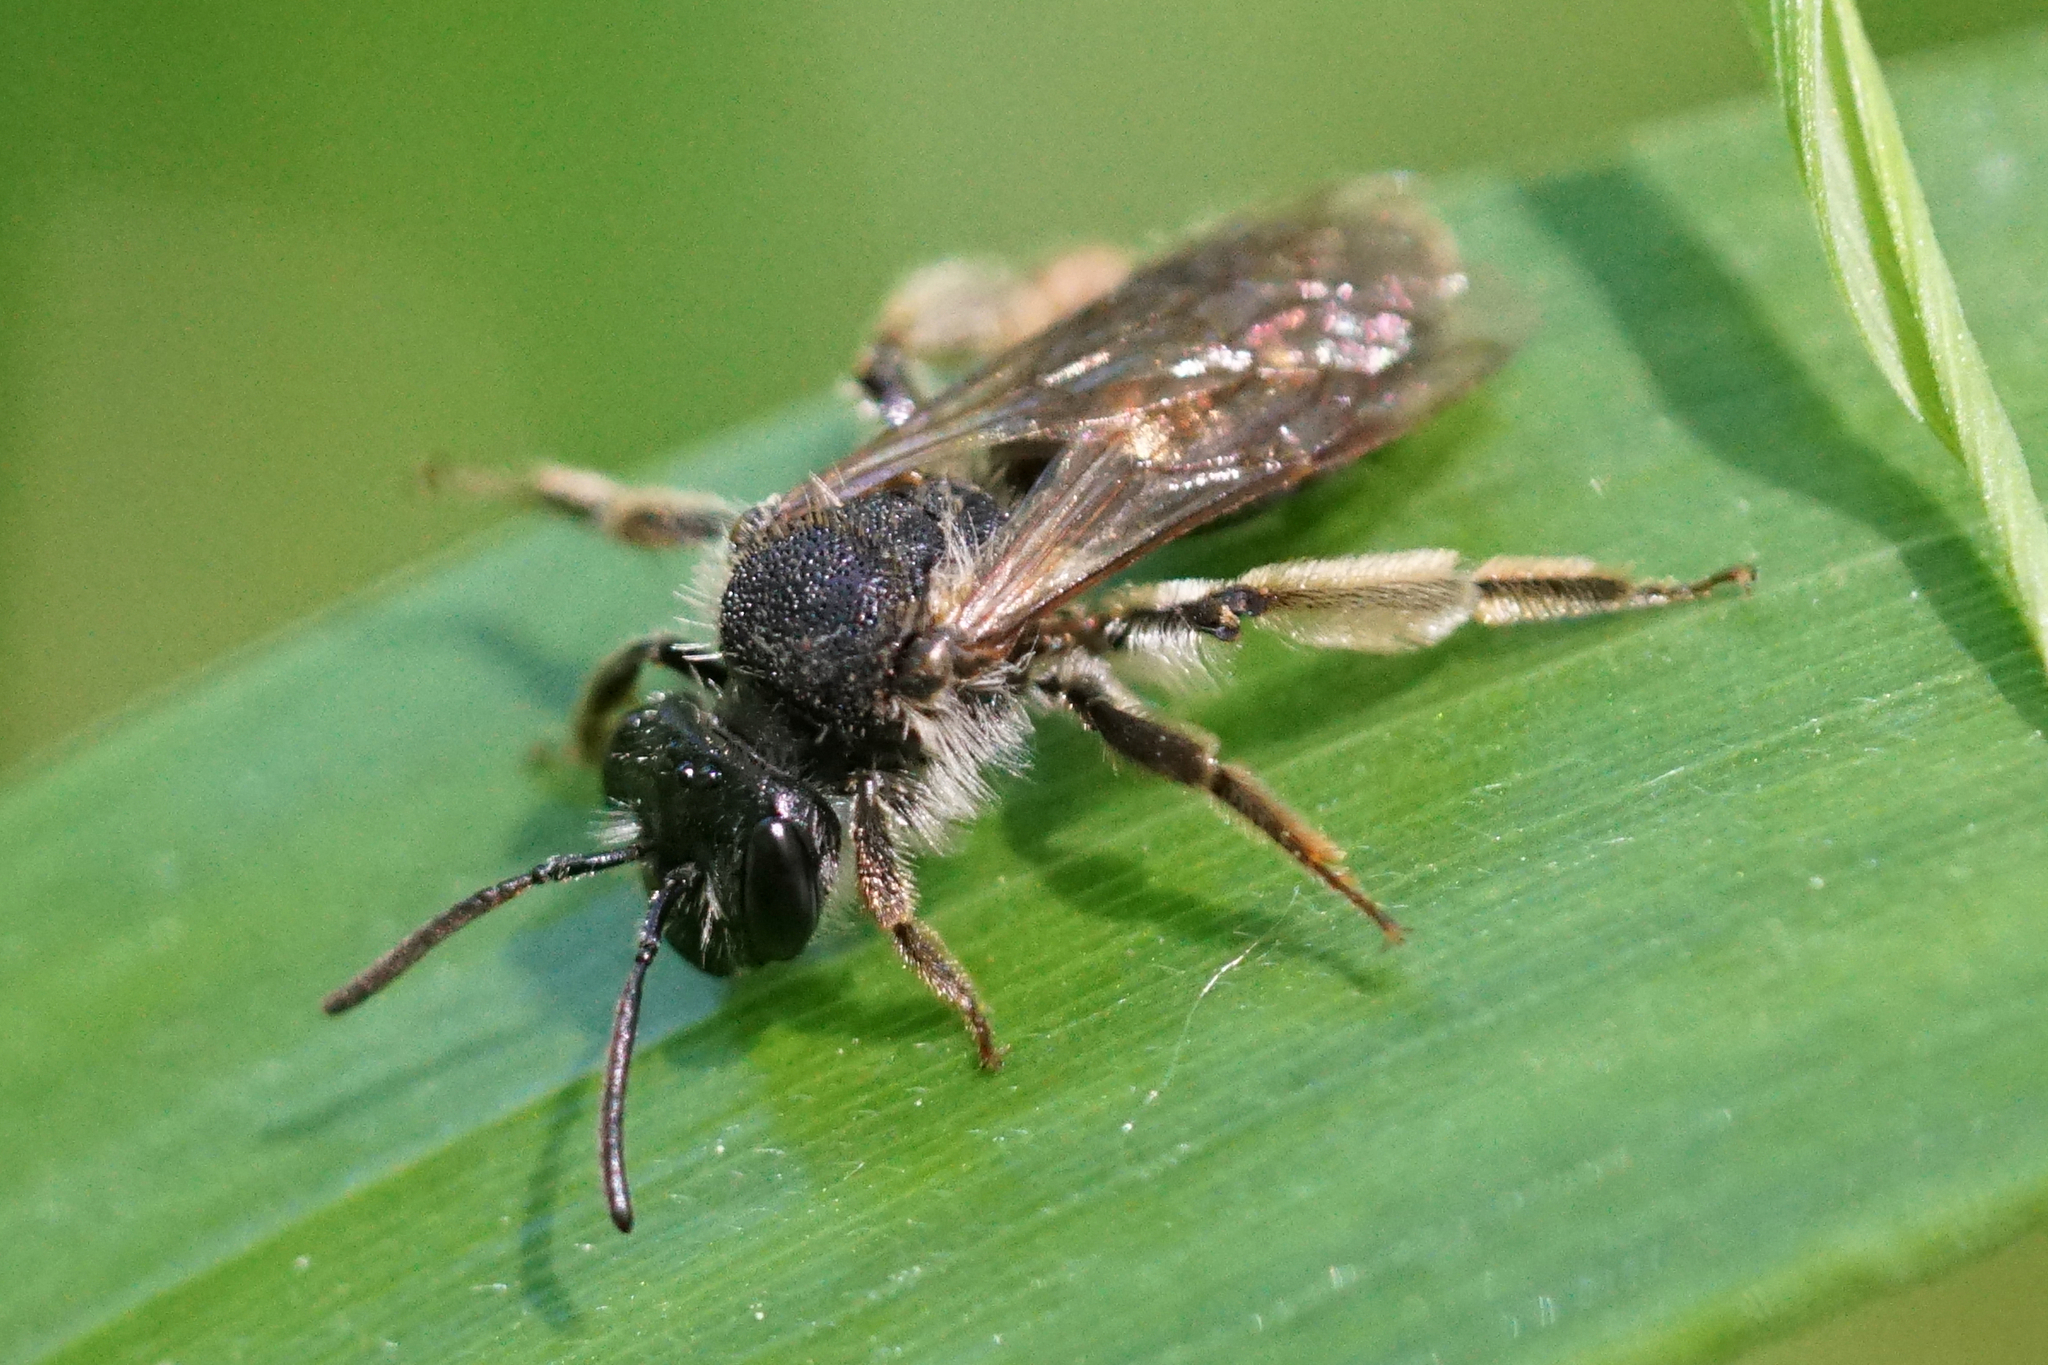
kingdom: Animalia
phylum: Arthropoda
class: Insecta
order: Hymenoptera
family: Andrenidae
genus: Andrena
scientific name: Andrena
